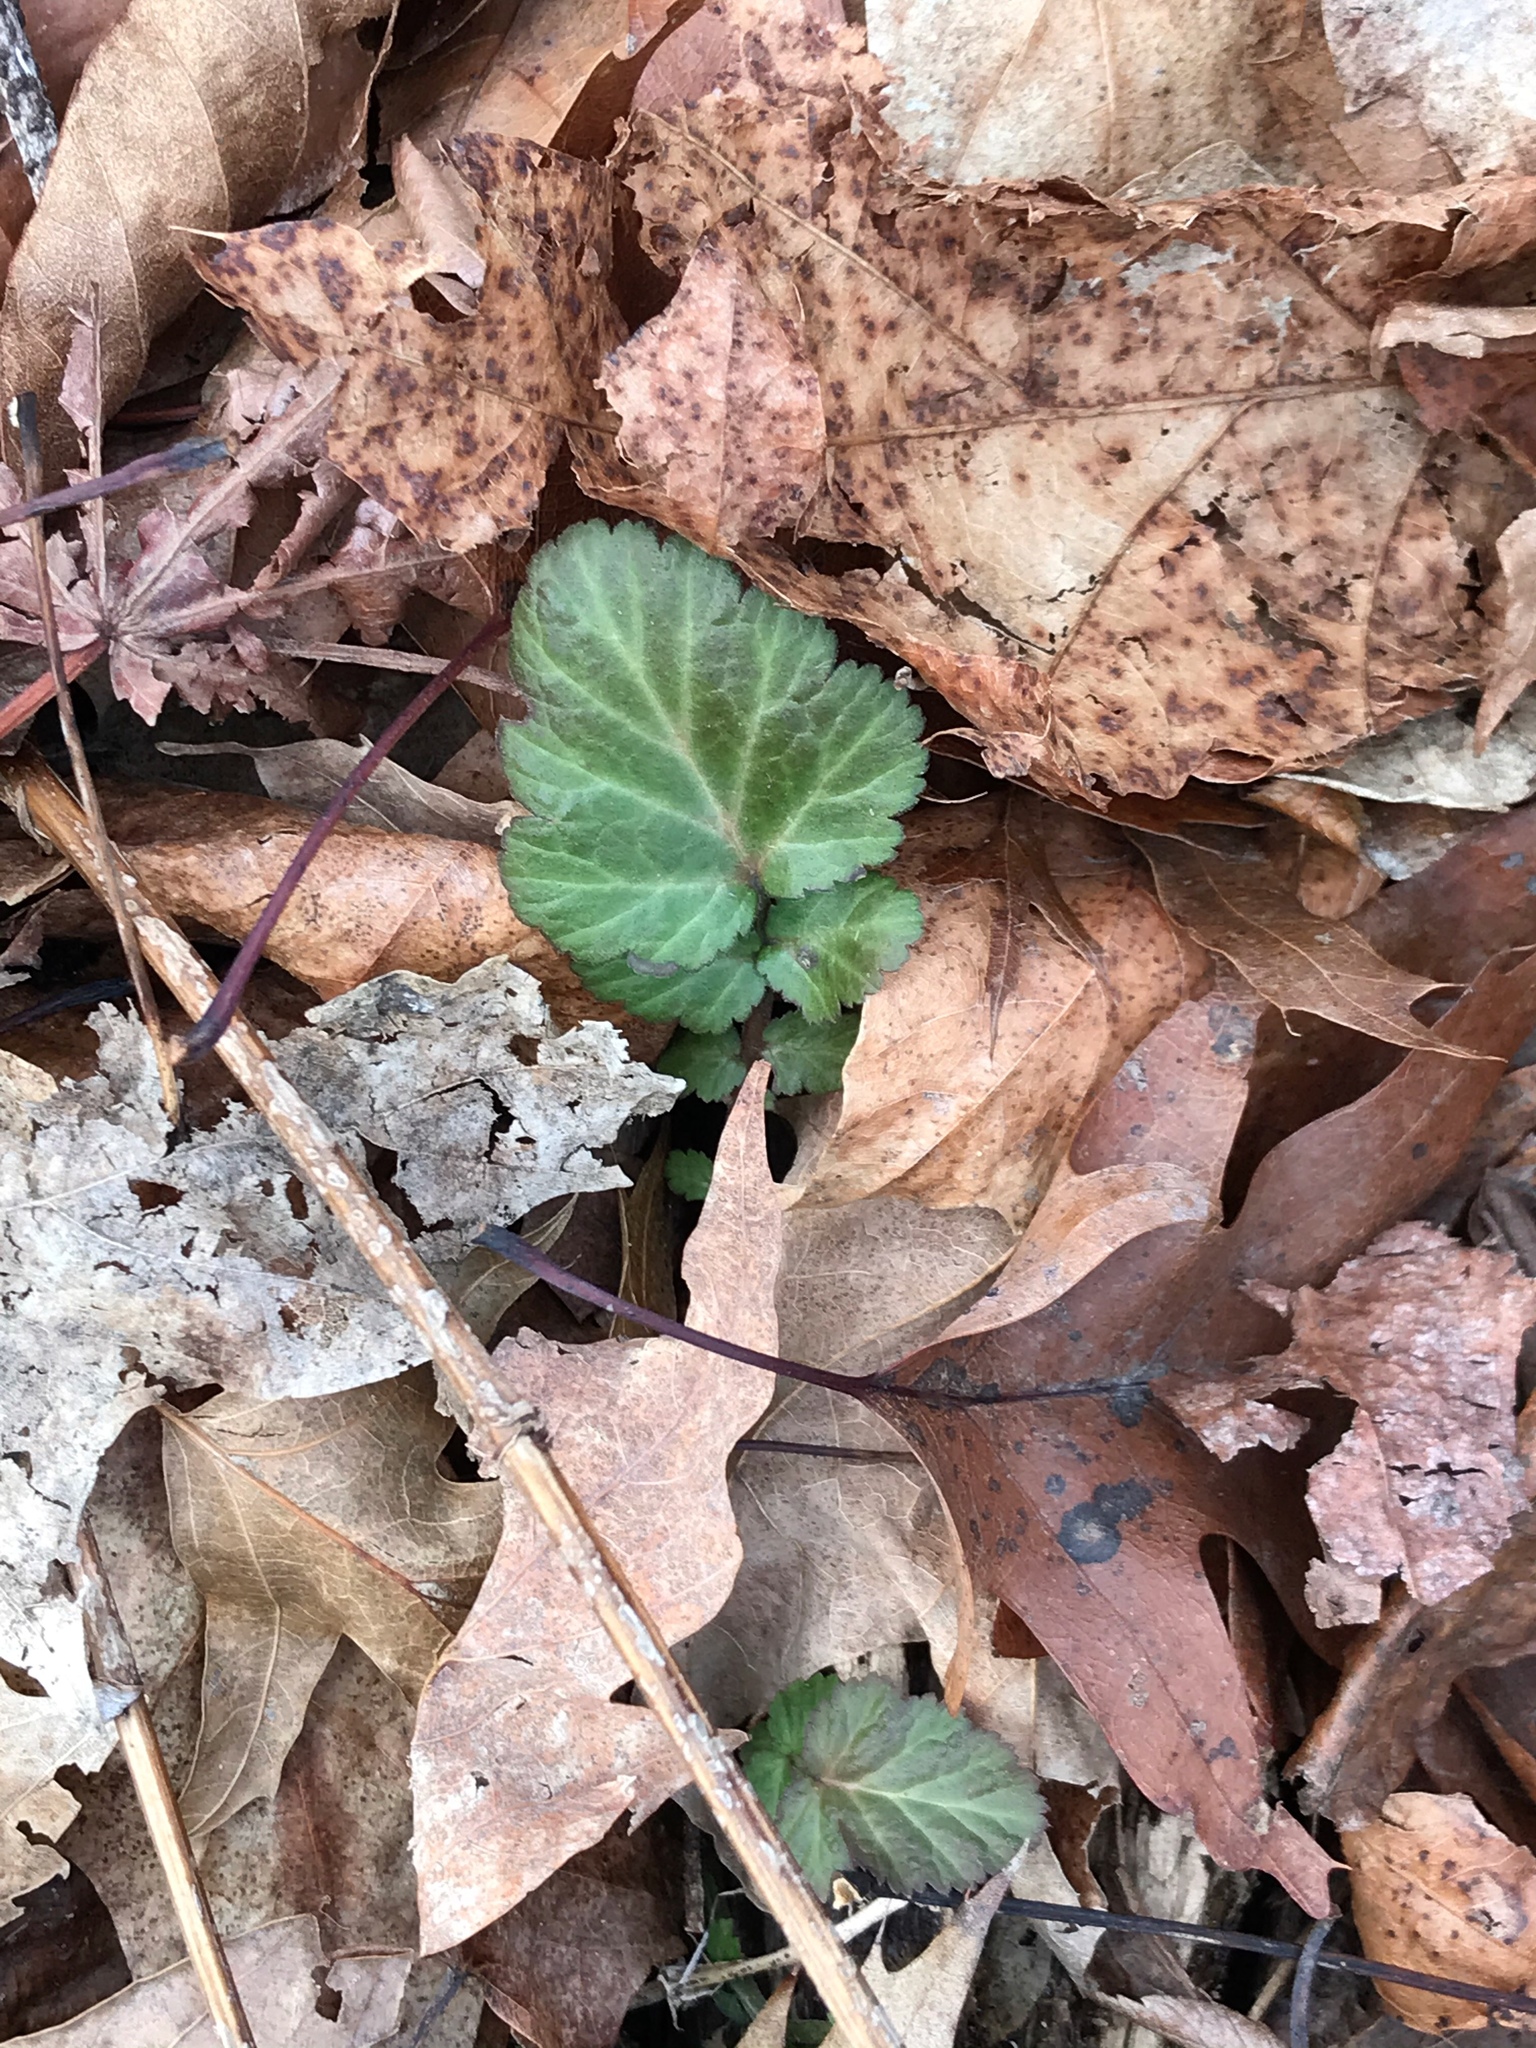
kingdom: Plantae
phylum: Tracheophyta
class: Magnoliopsida
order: Rosales
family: Rosaceae
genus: Geum
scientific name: Geum canadense
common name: White avens
